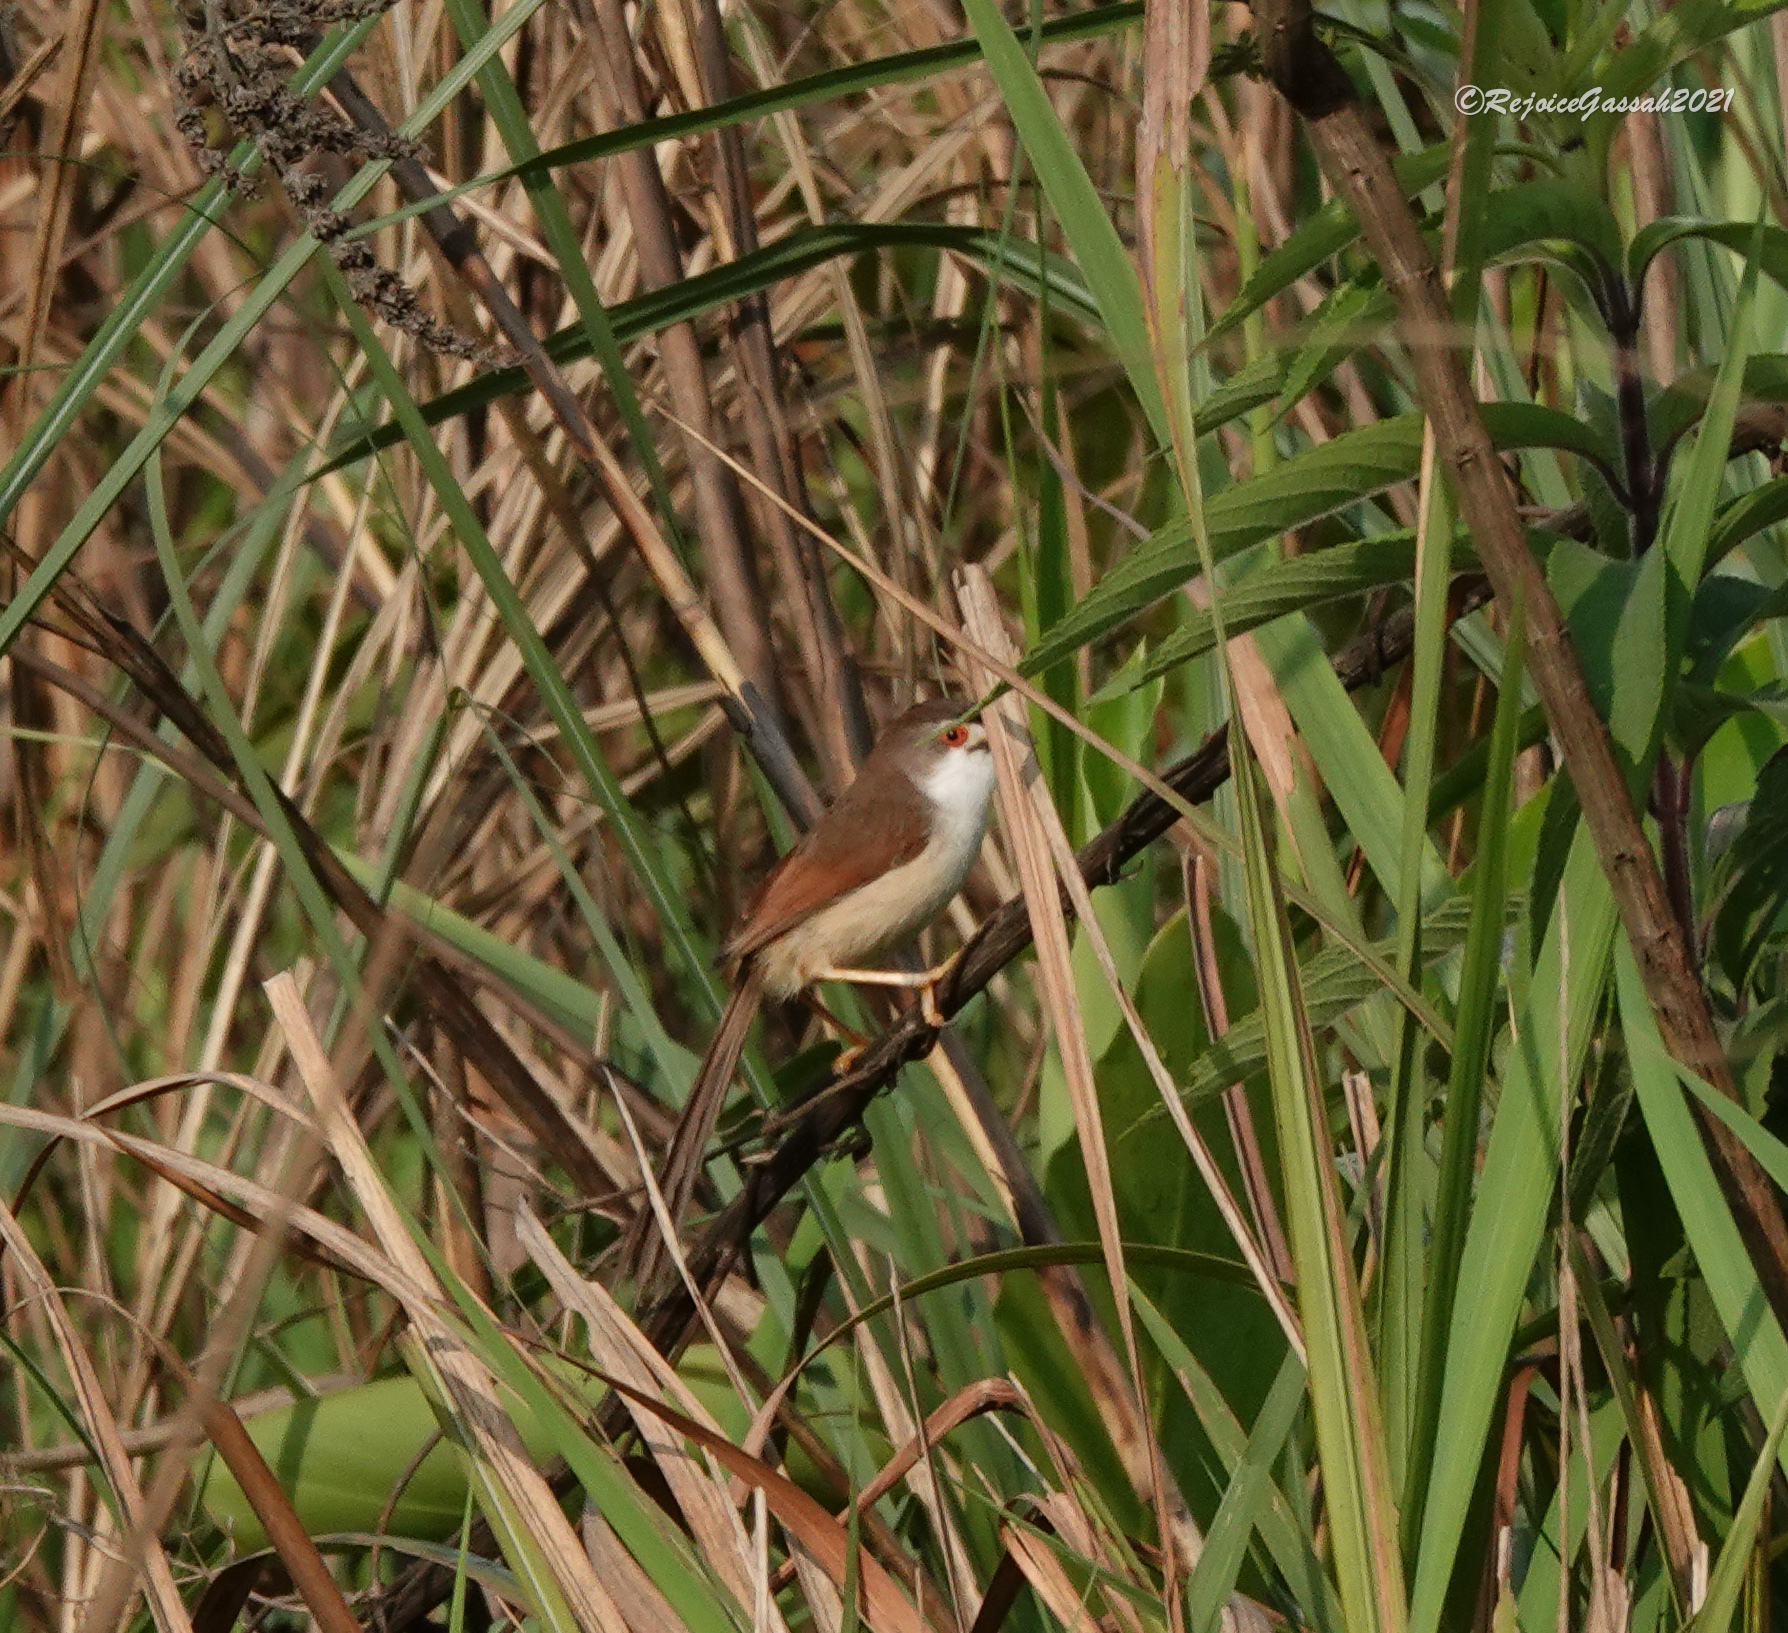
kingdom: Animalia
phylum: Chordata
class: Aves
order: Passeriformes
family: Sylviidae
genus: Chrysomma
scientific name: Chrysomma sinense
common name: Yellow-eyed babbler
